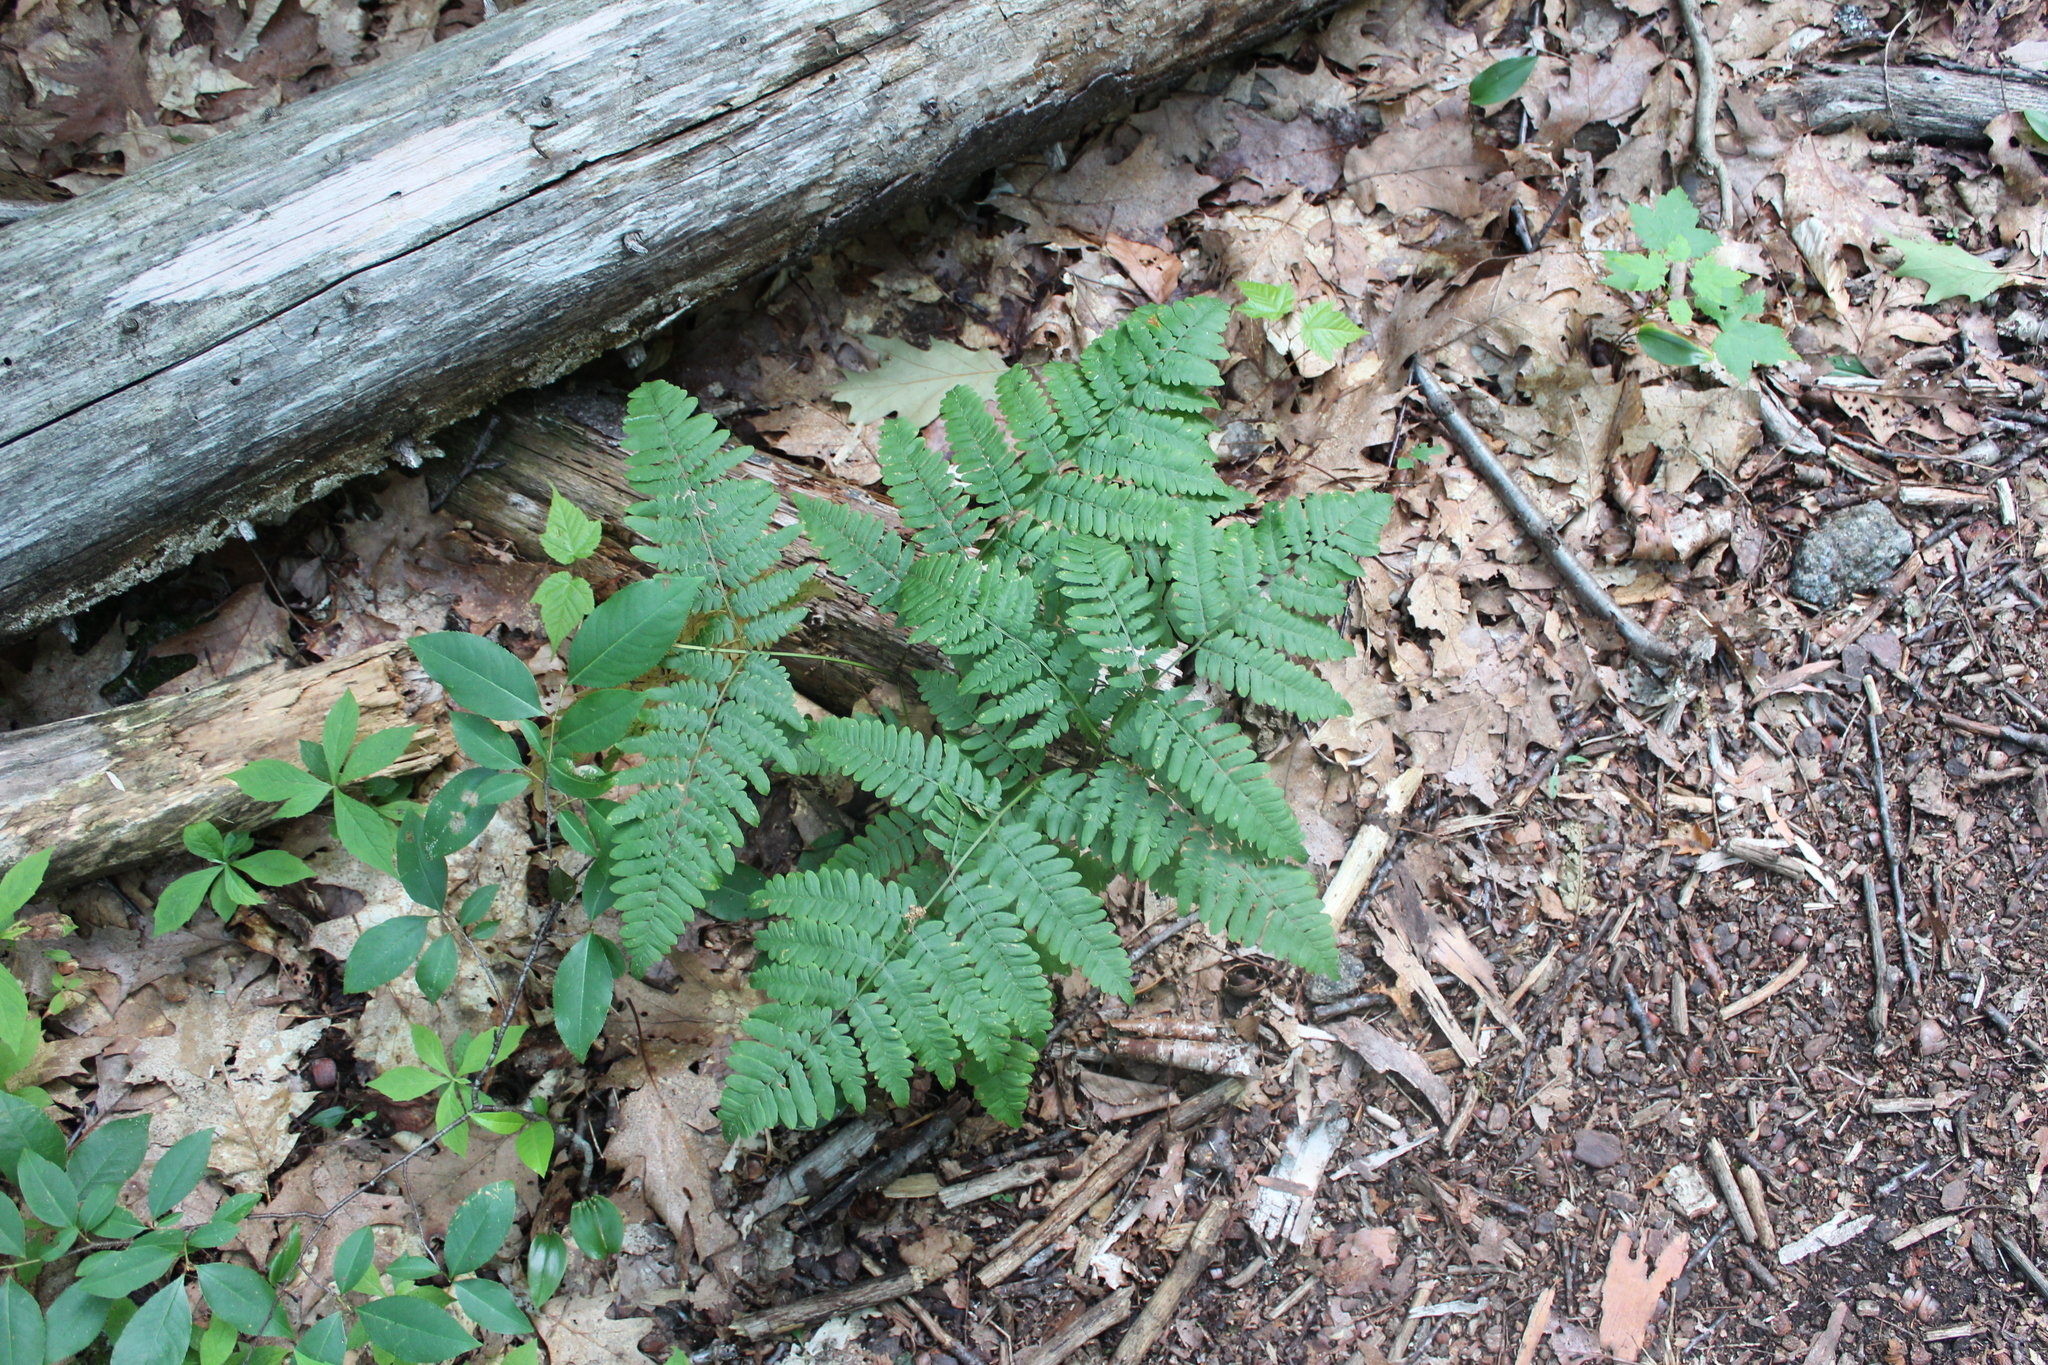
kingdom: Plantae
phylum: Tracheophyta
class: Polypodiopsida
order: Polypodiales
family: Dennstaedtiaceae
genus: Pteridium
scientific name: Pteridium aquilinum
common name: Bracken
